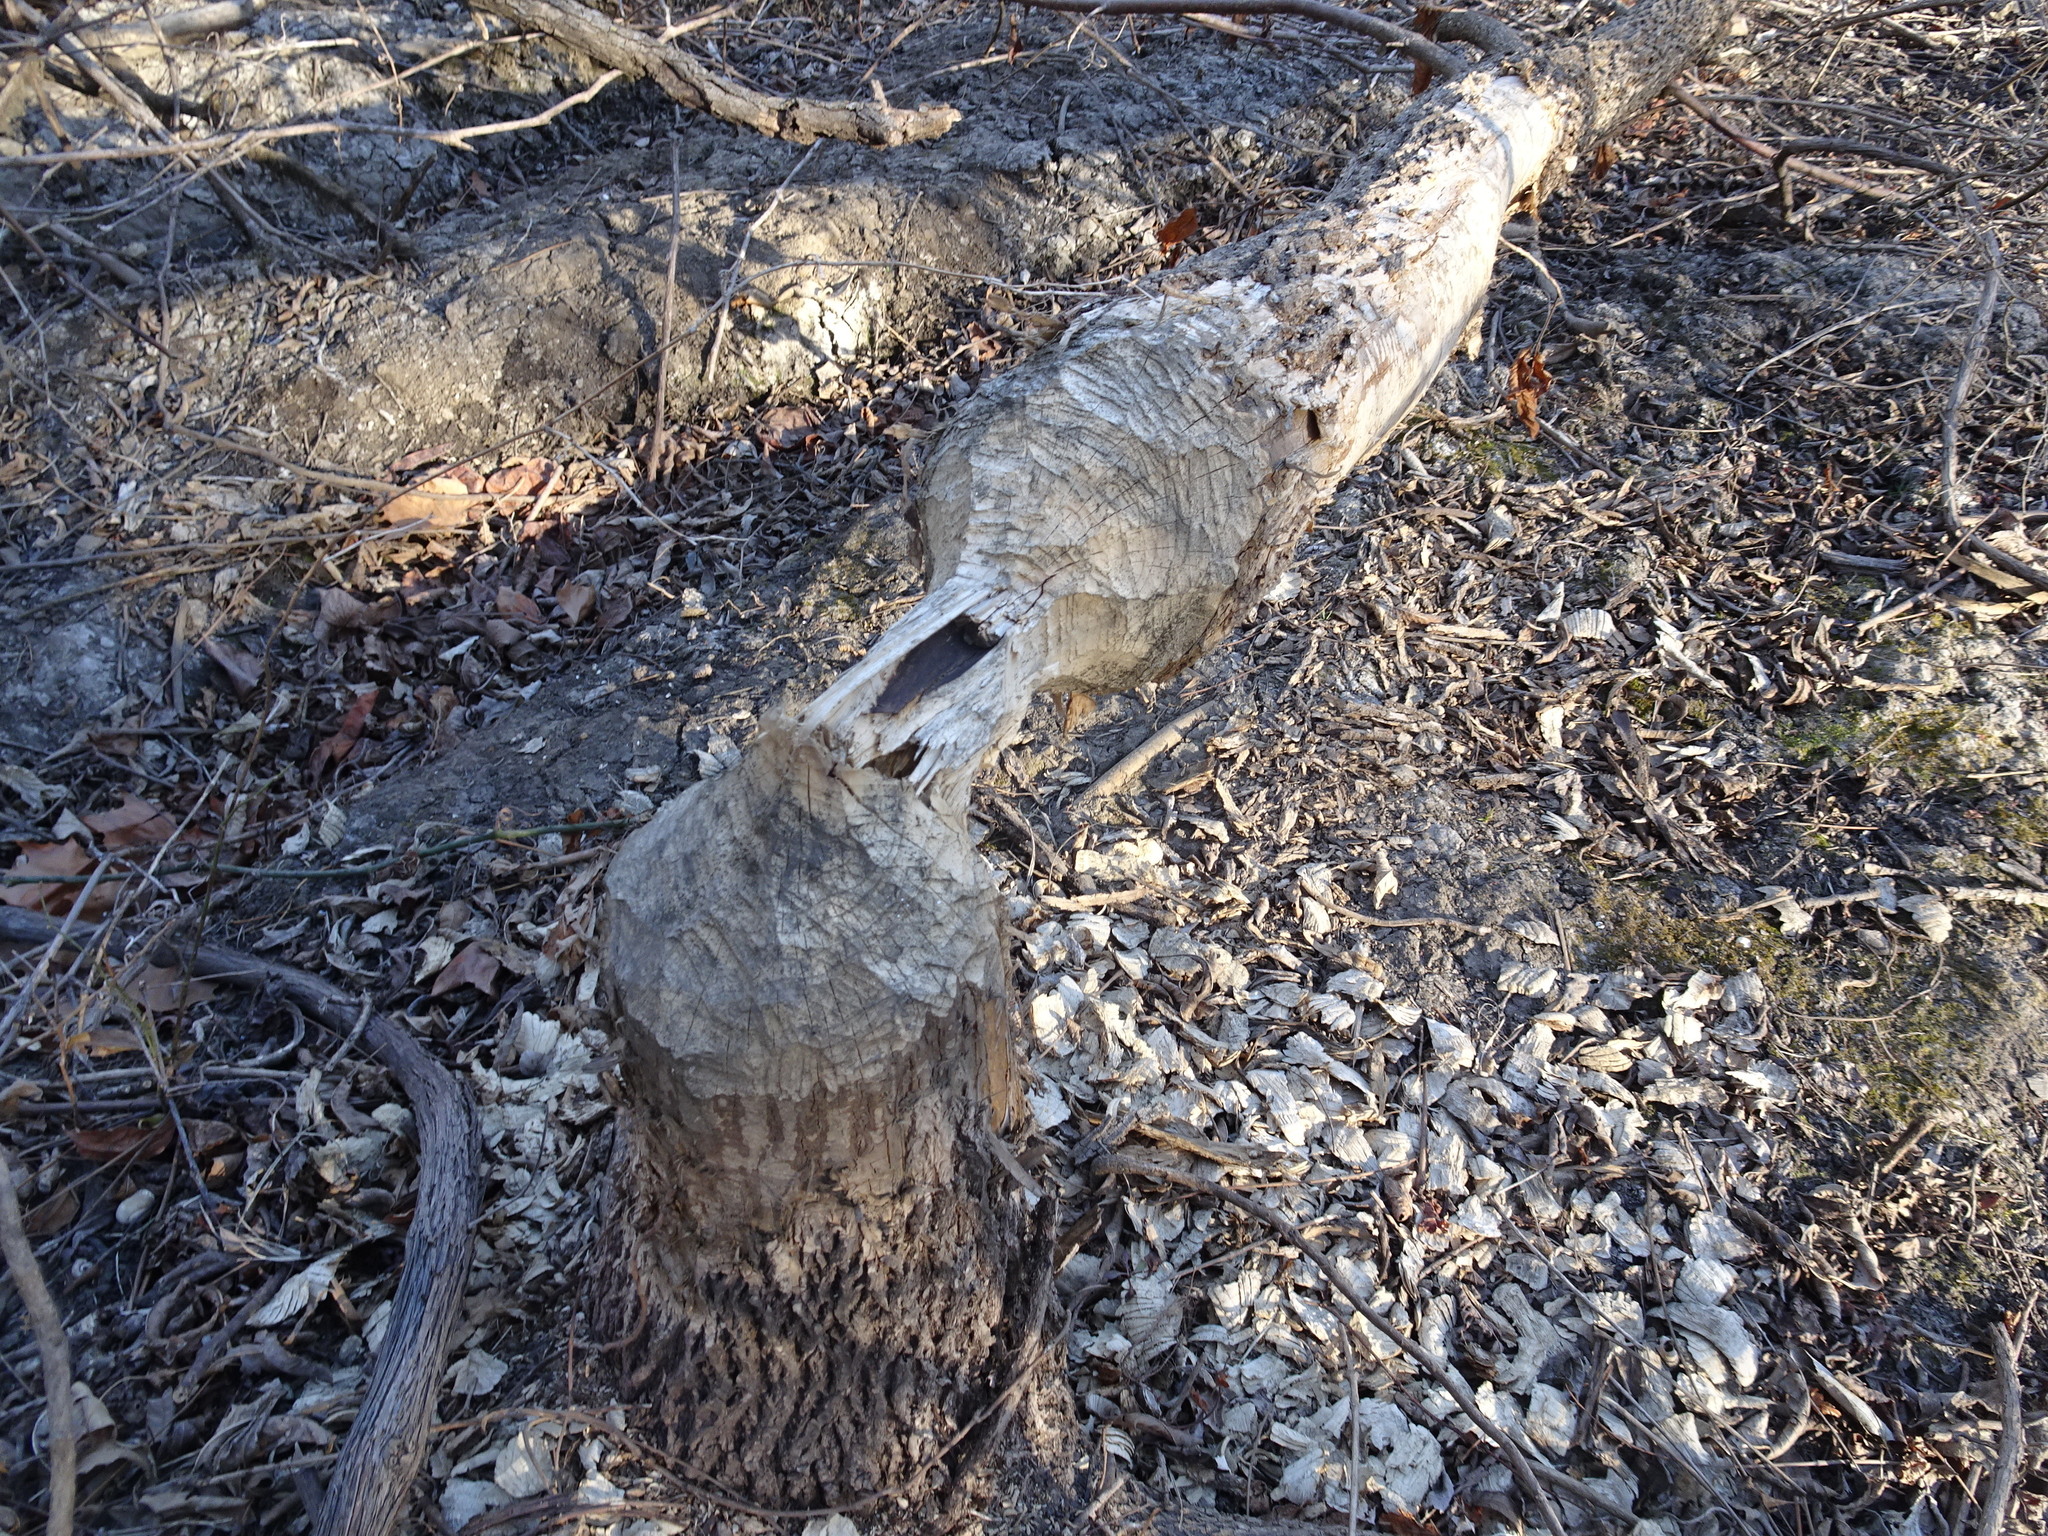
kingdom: Animalia
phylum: Chordata
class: Mammalia
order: Rodentia
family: Castoridae
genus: Castor
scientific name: Castor canadensis
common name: American beaver
